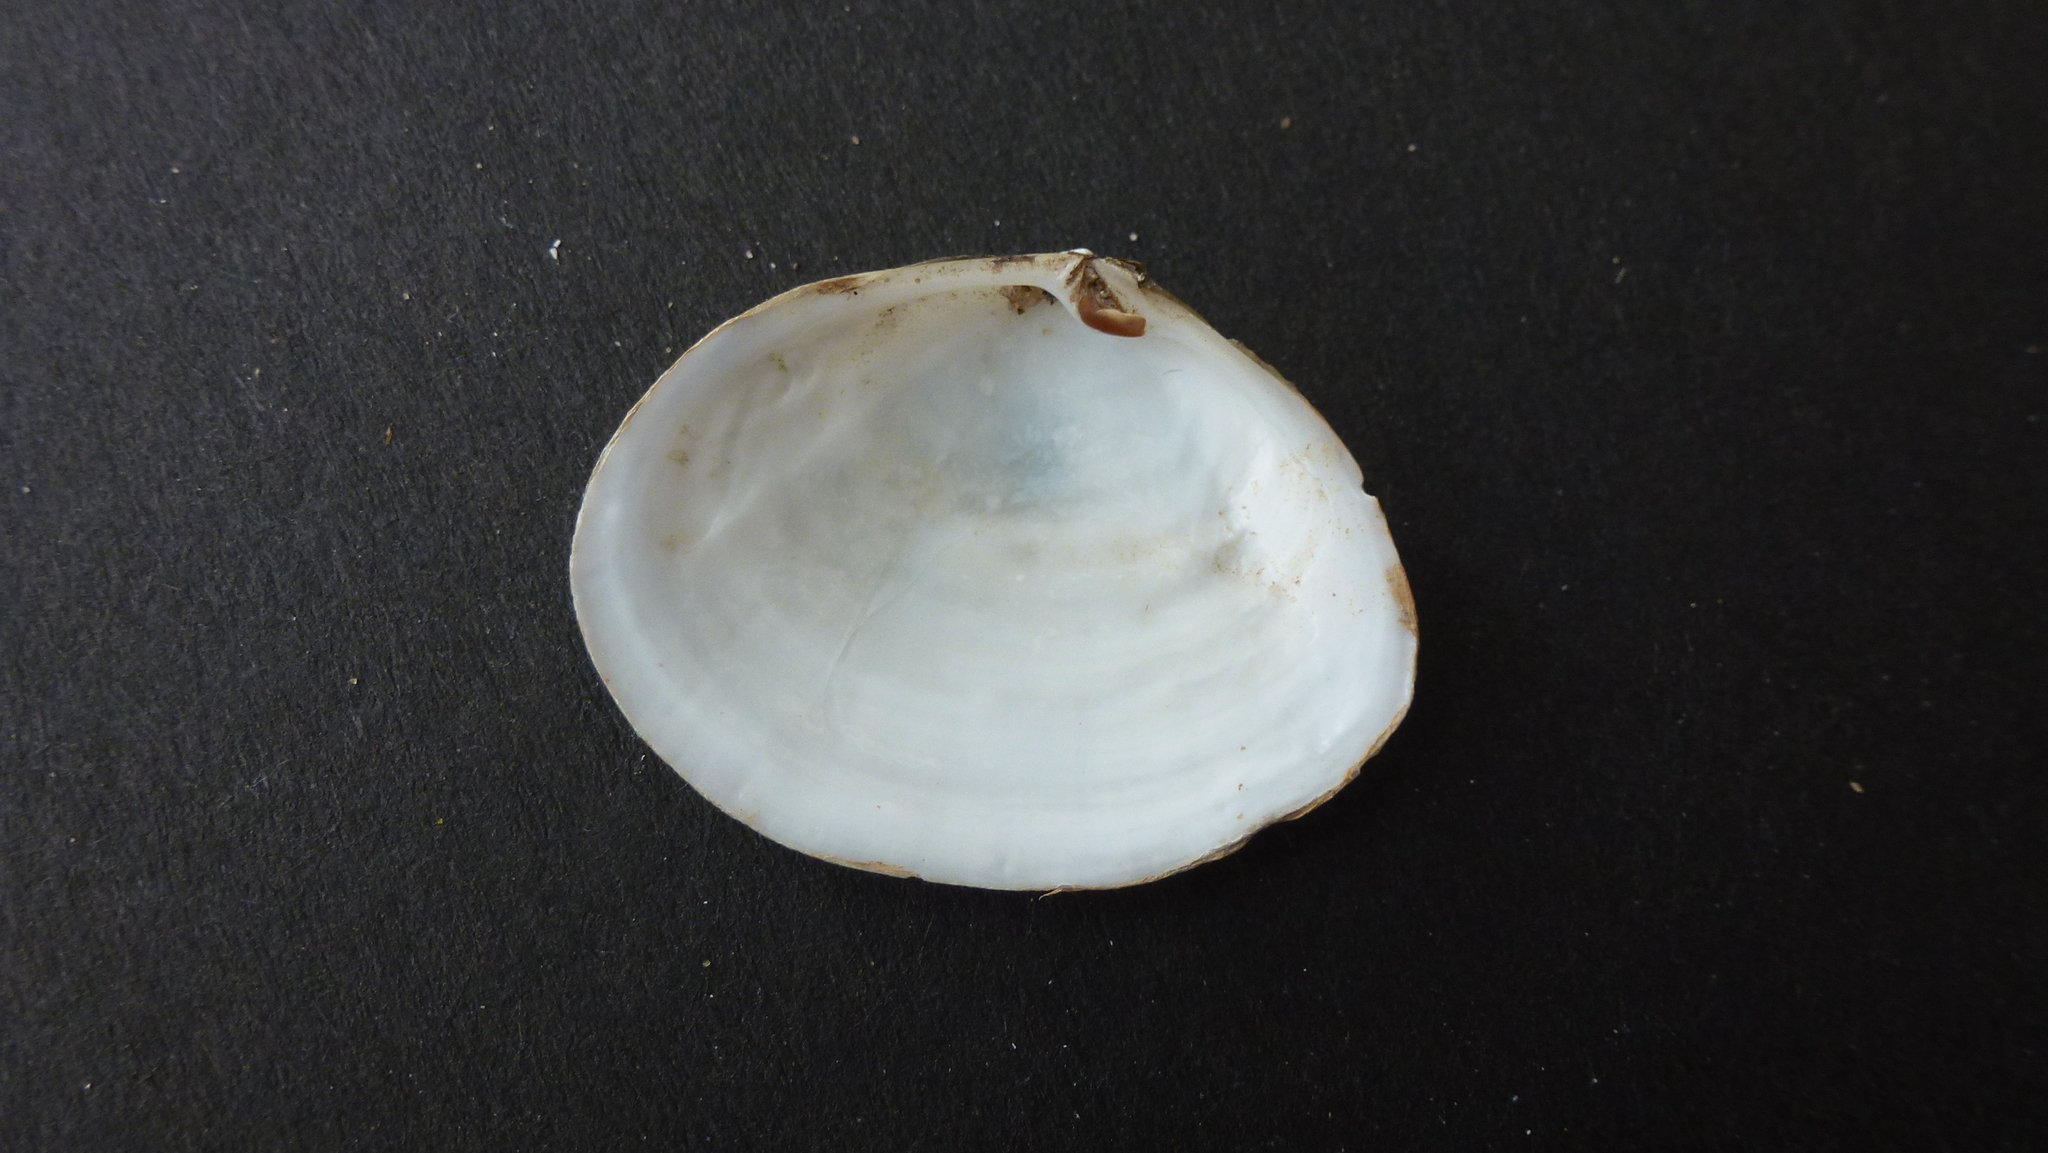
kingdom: Animalia
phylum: Mollusca
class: Bivalvia
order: Cardiida
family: Semelidae
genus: Scrobicularia
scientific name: Scrobicularia plana
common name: Peppery furrow shell
